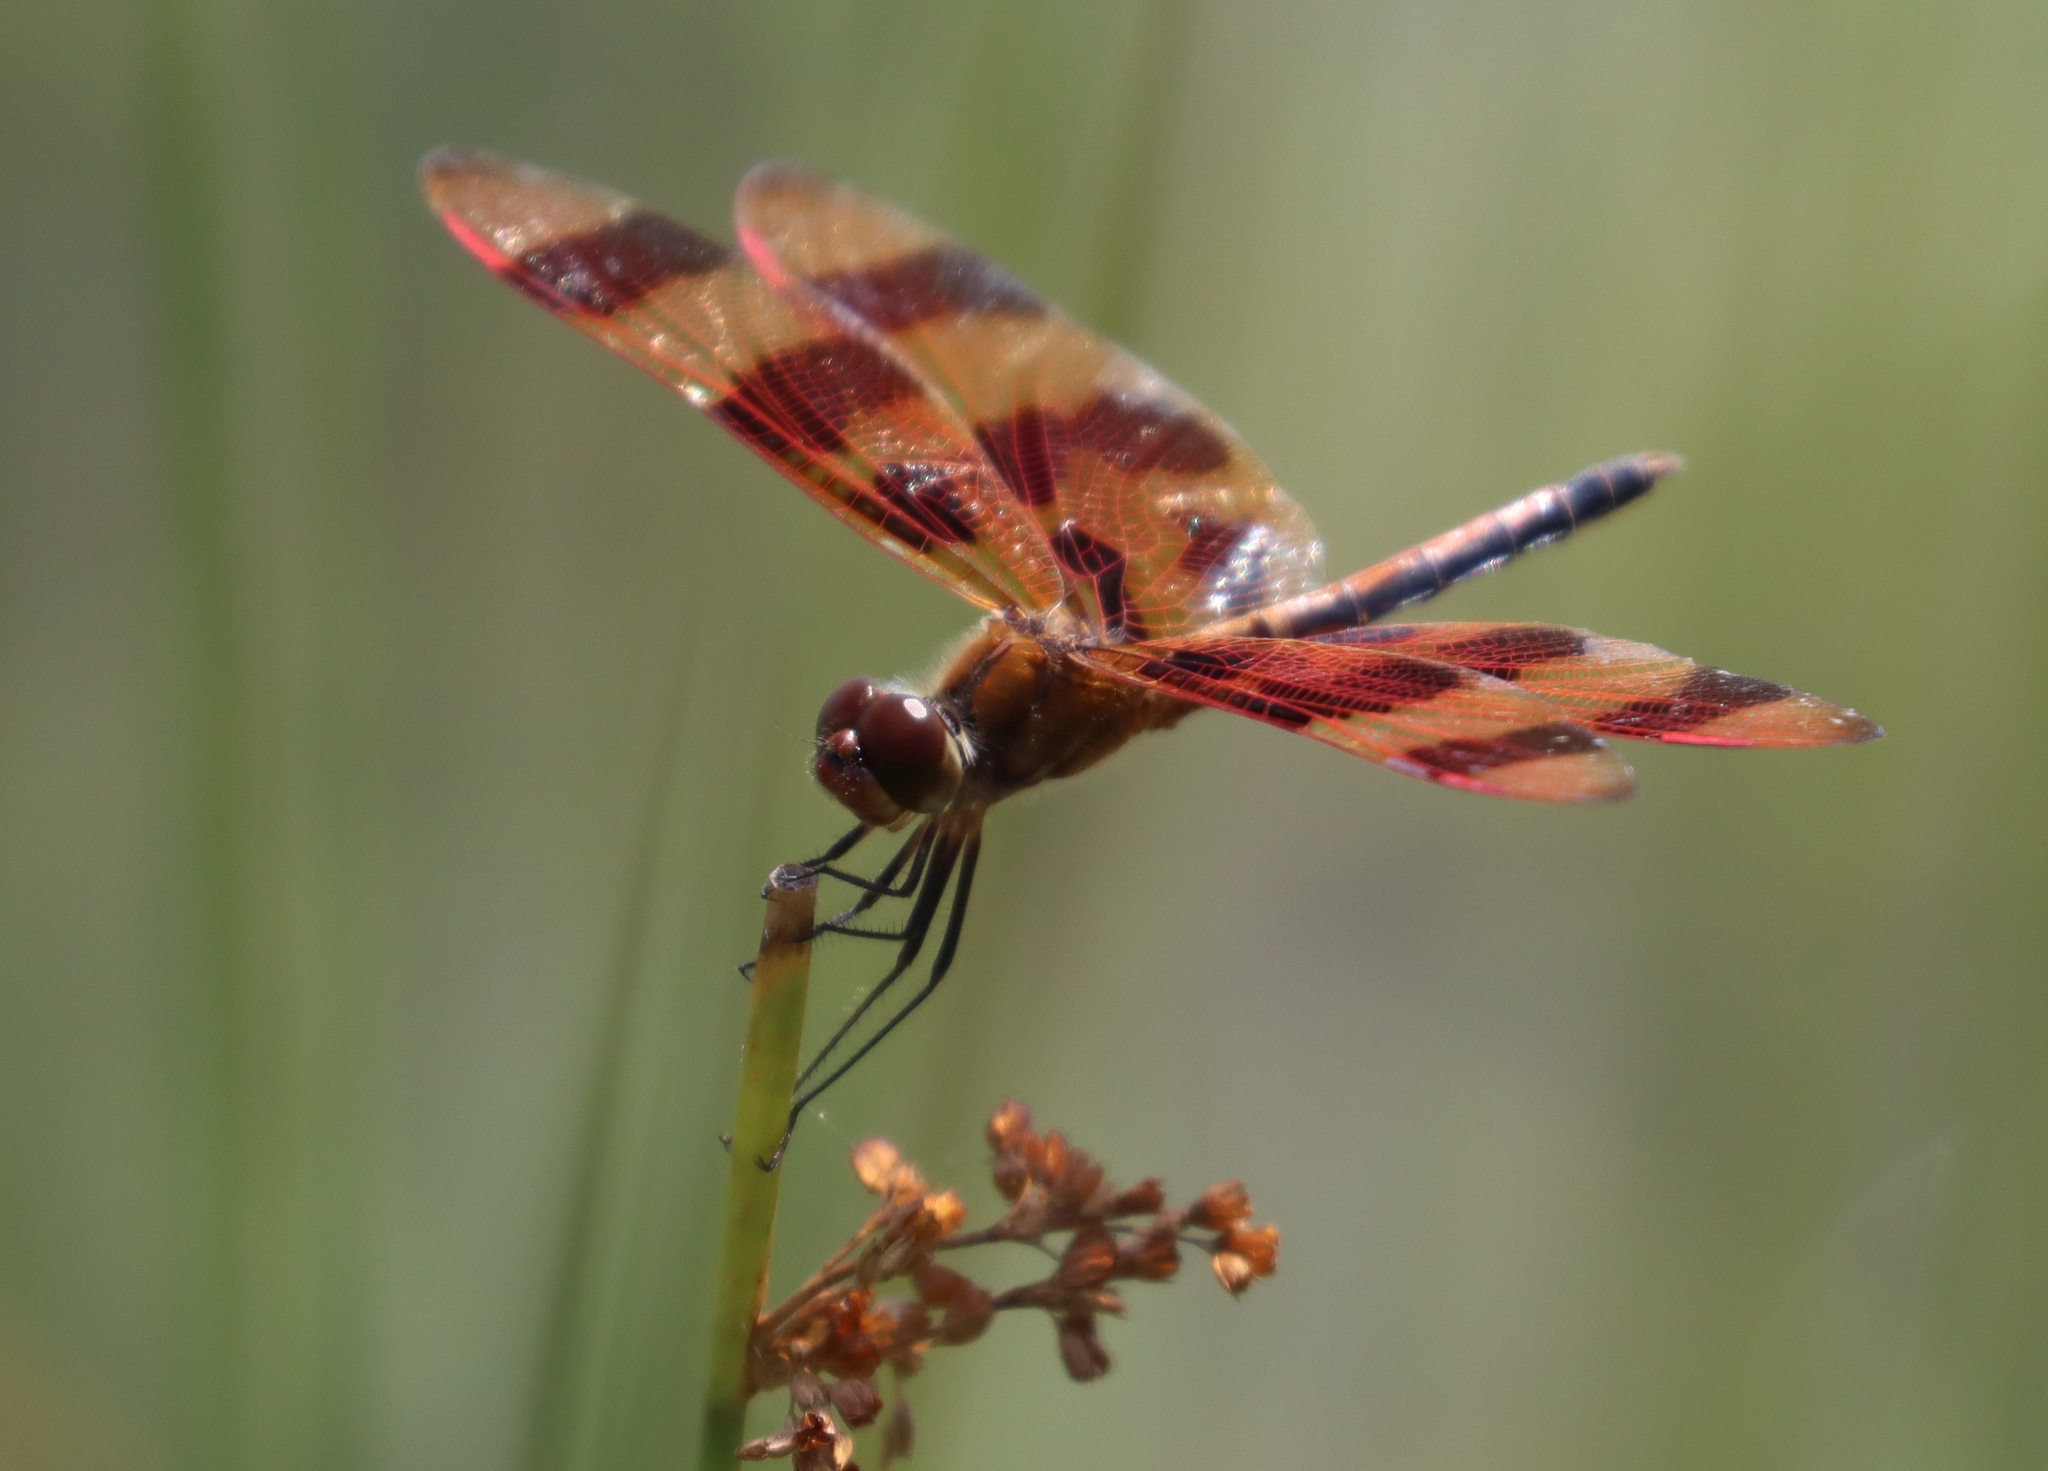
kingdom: Animalia
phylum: Arthropoda
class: Insecta
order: Odonata
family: Libellulidae
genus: Celithemis
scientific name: Celithemis eponina
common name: Halloween pennant
